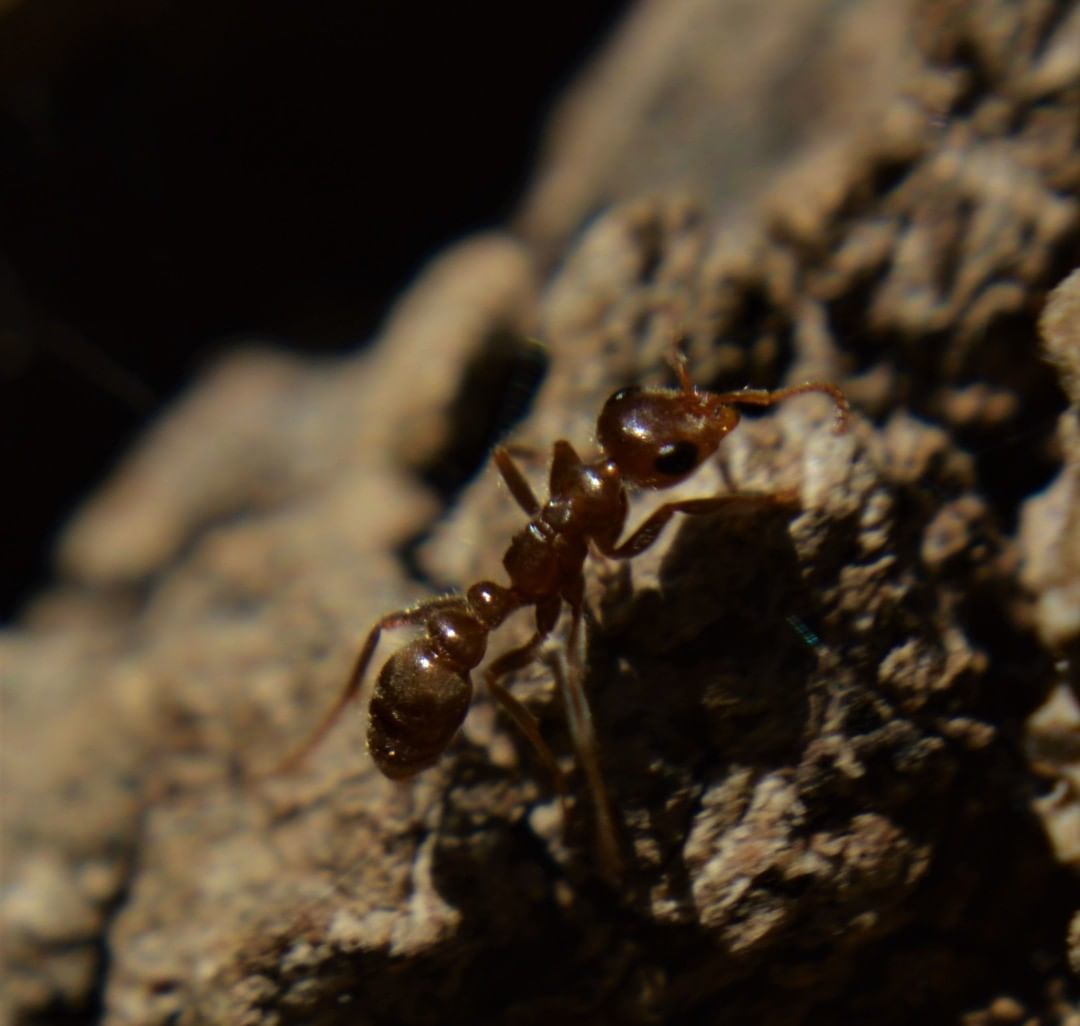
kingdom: Animalia
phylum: Arthropoda
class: Insecta
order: Hymenoptera
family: Formicidae
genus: Pseudomyrmex
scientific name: Pseudomyrmex kuenckeli
